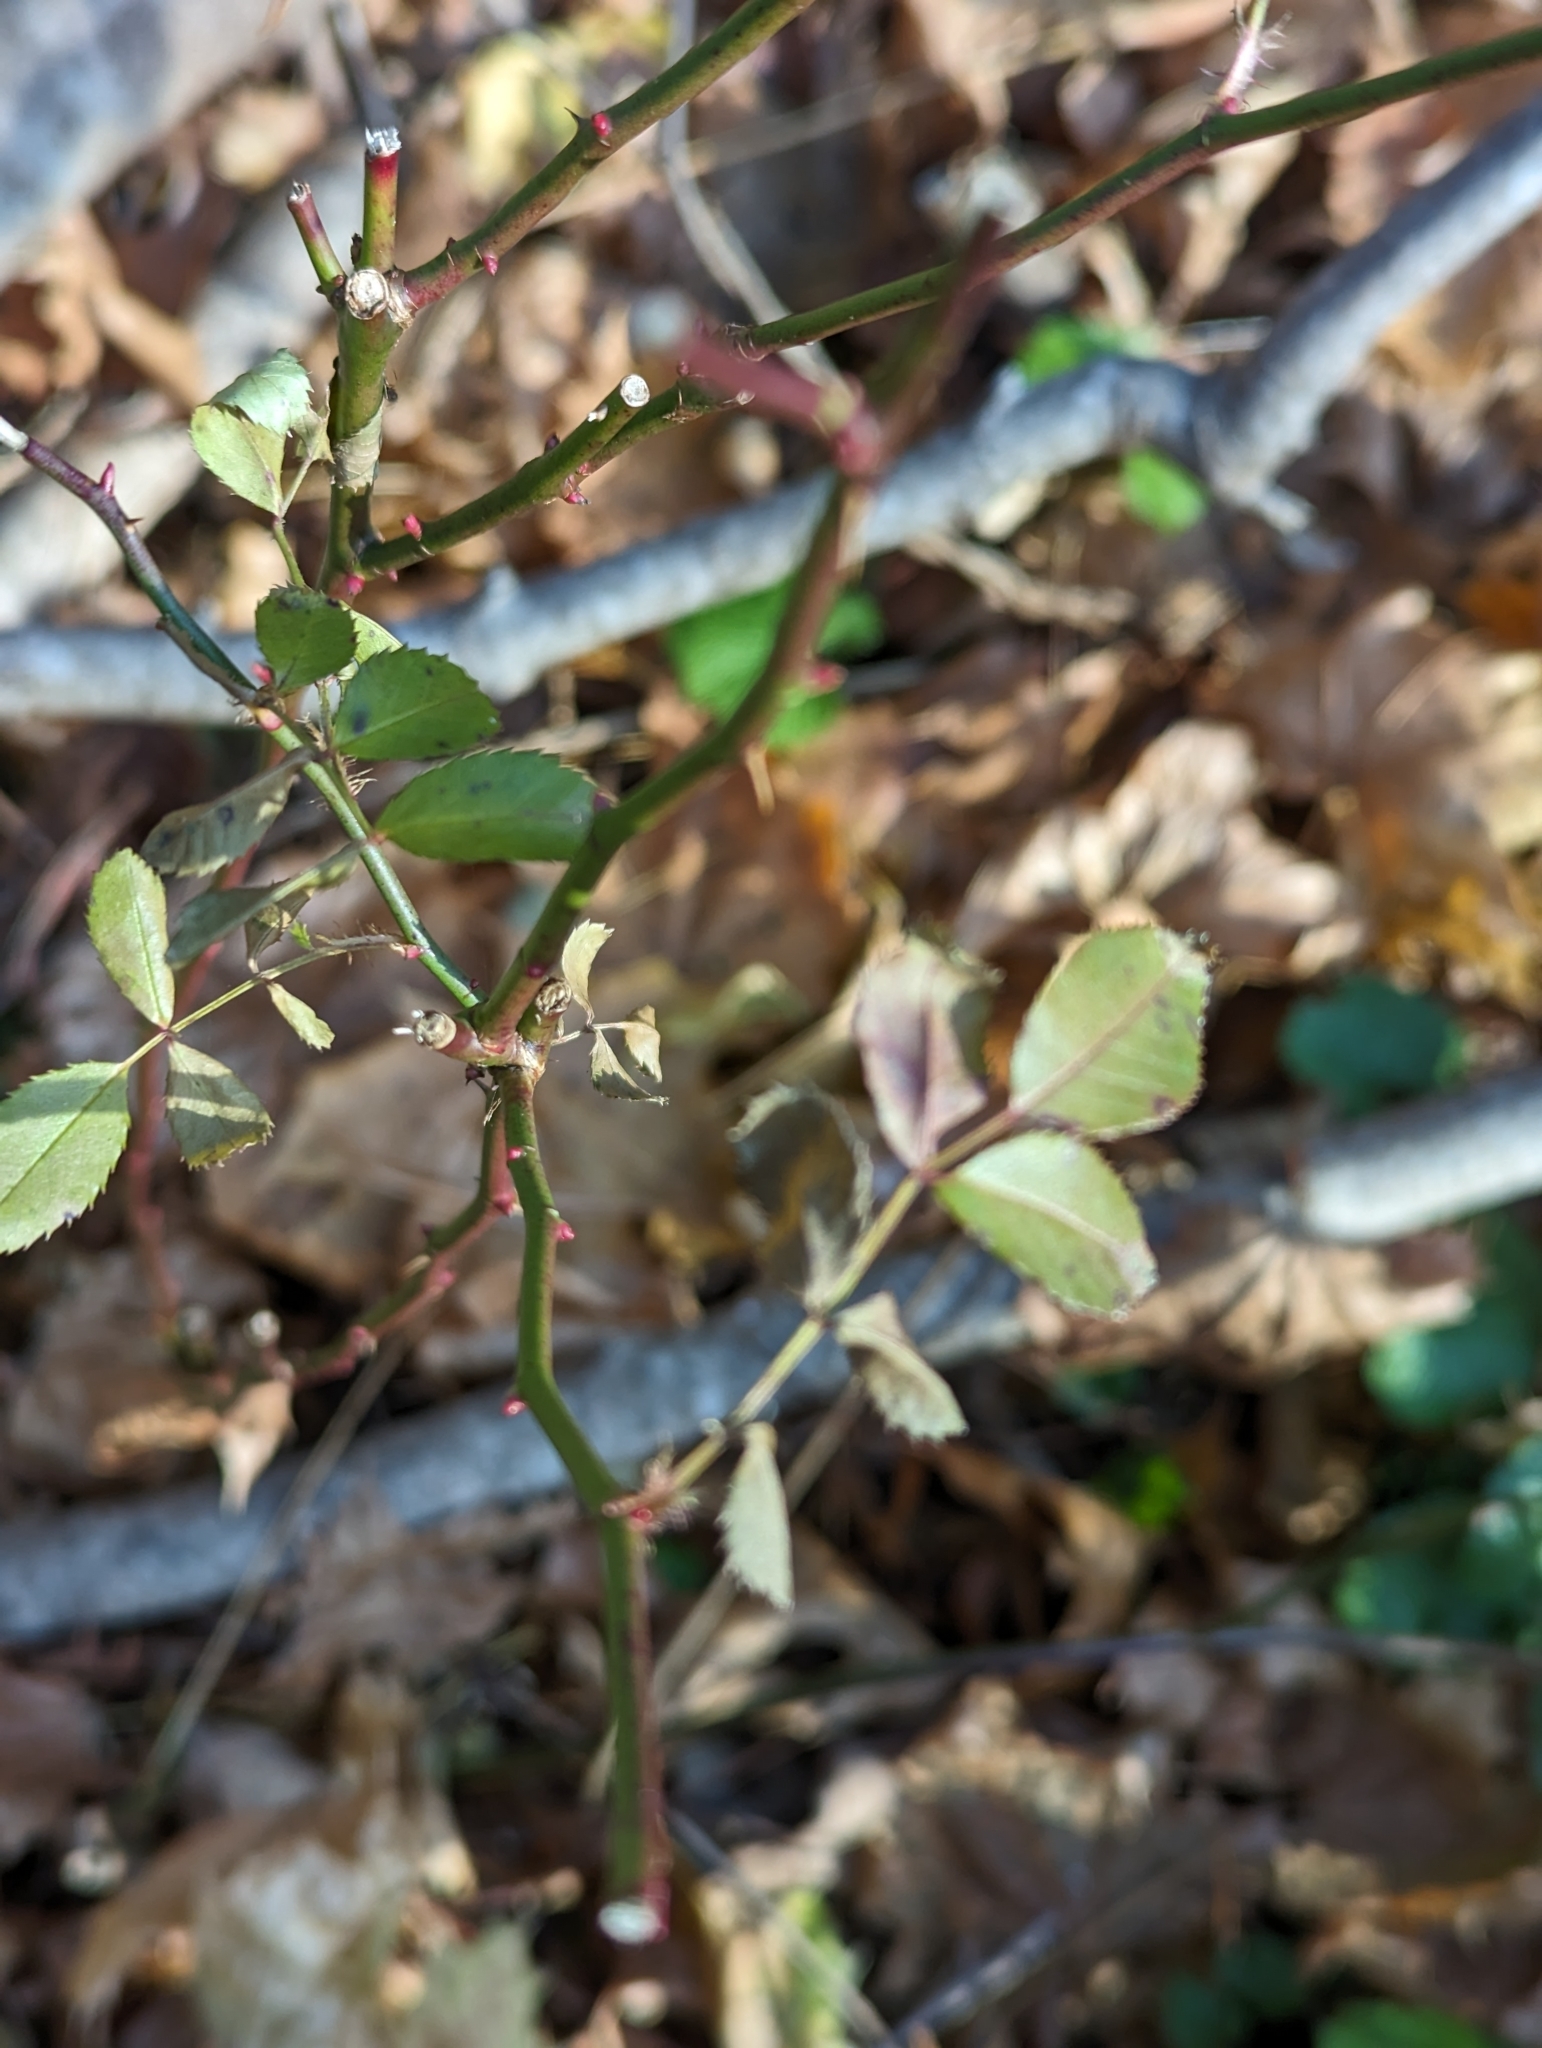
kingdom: Plantae
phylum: Tracheophyta
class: Magnoliopsida
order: Rosales
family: Rosaceae
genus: Rosa
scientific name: Rosa multiflora
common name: Multiflora rose
